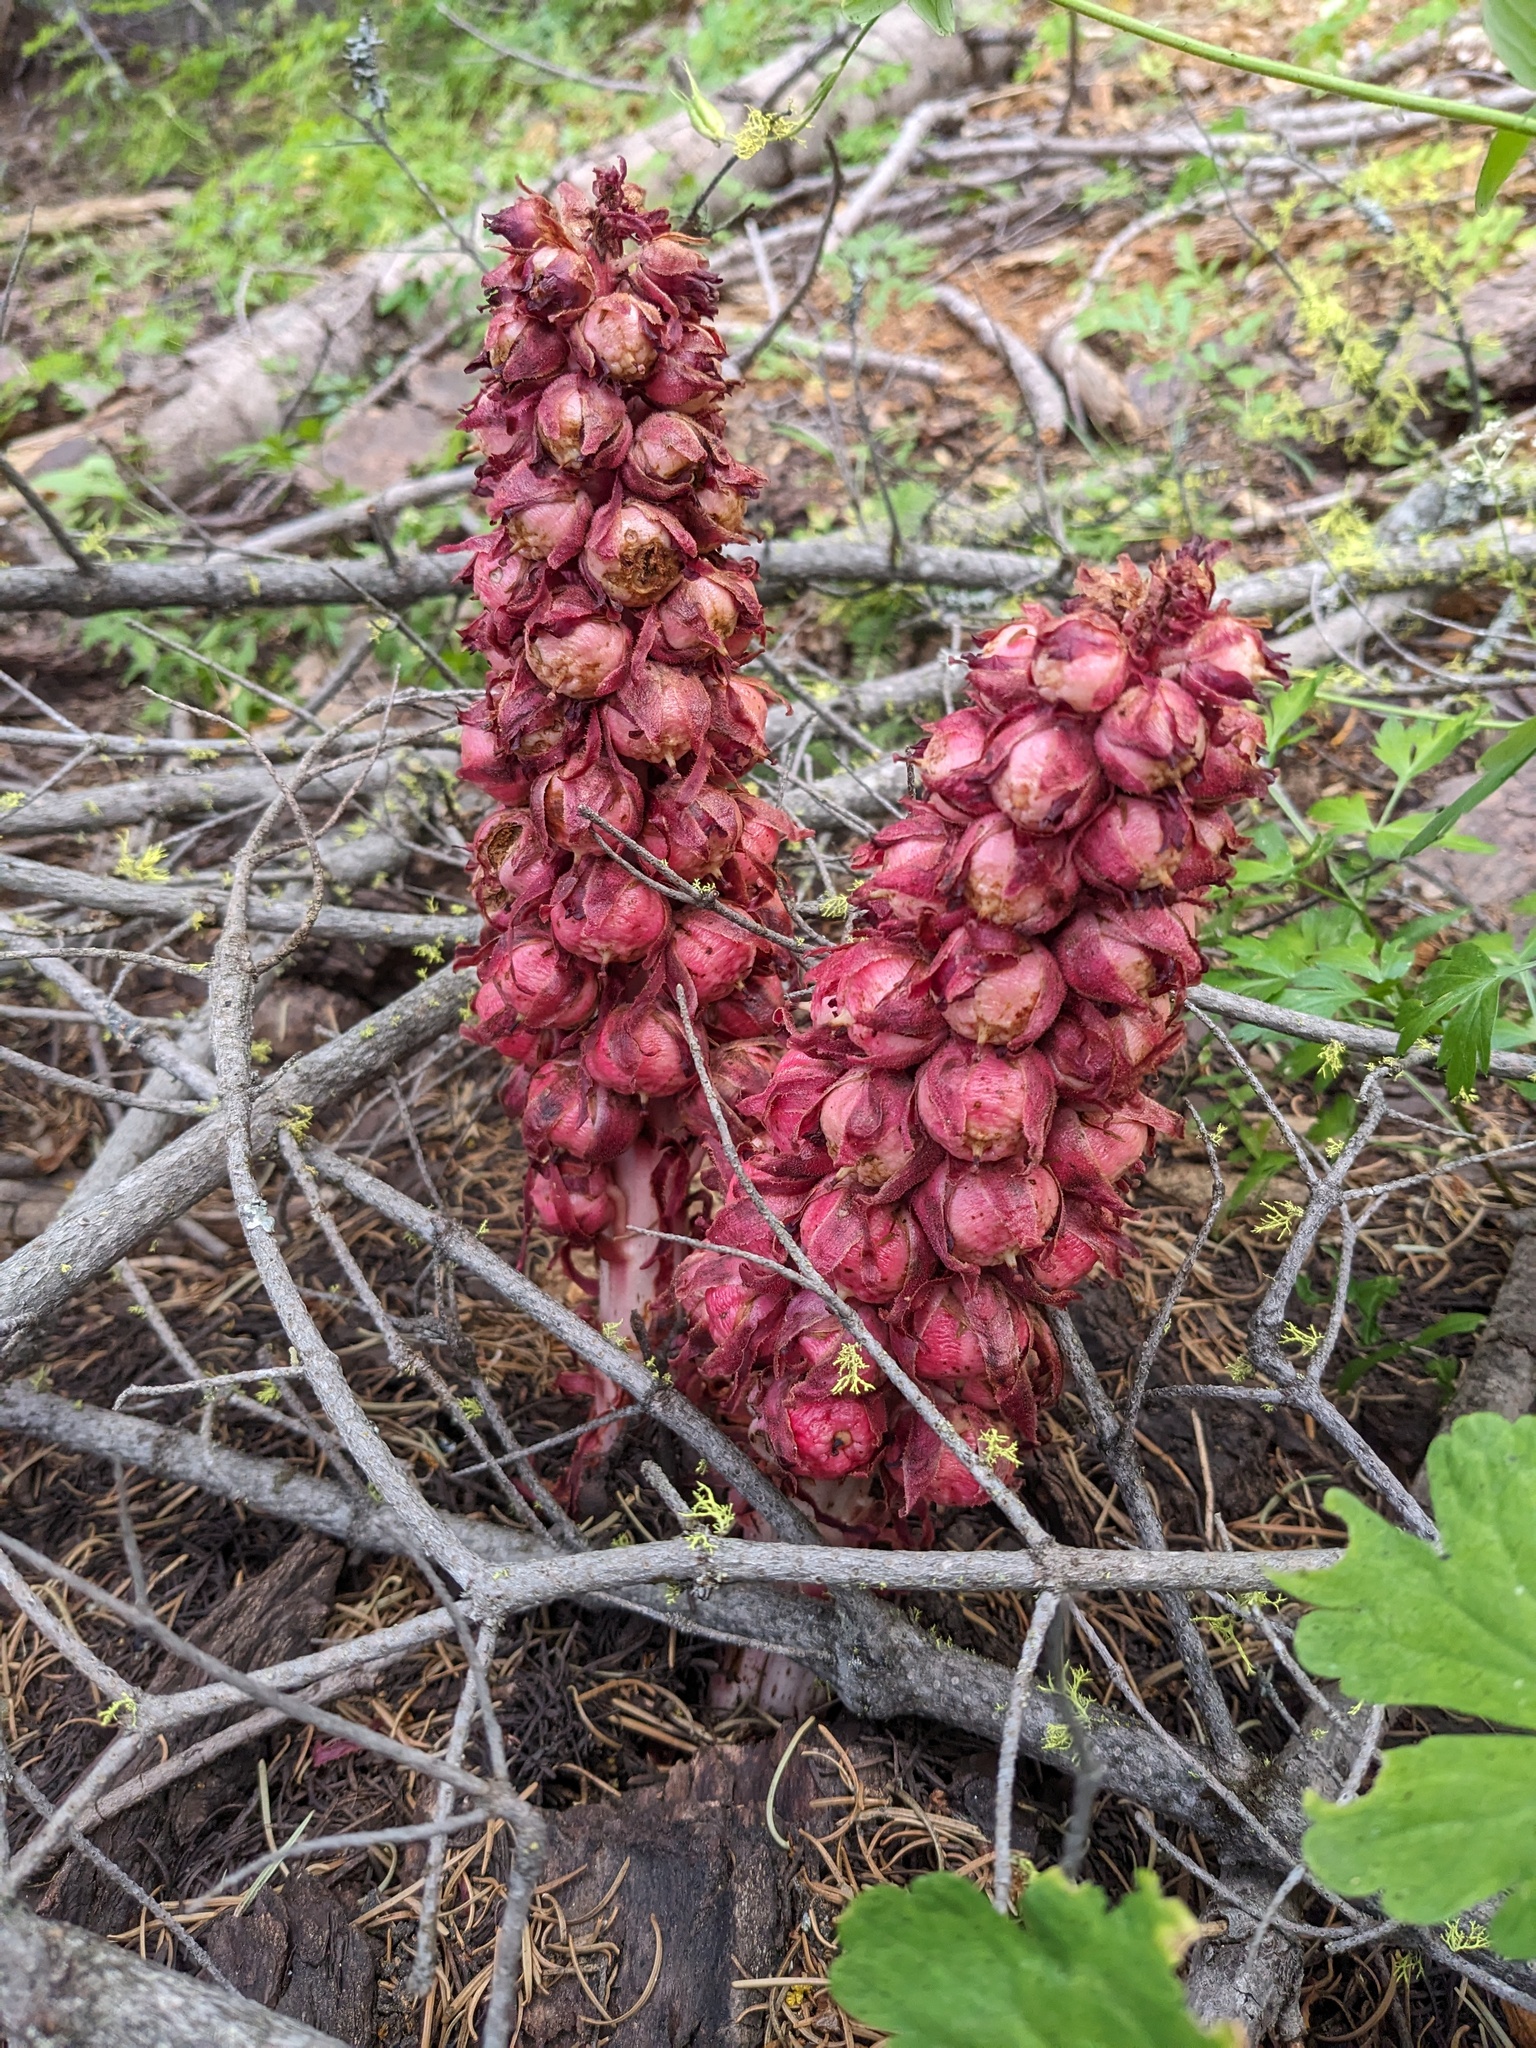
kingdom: Plantae
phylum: Tracheophyta
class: Magnoliopsida
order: Ericales
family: Ericaceae
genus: Sarcodes
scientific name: Sarcodes sanguinea
